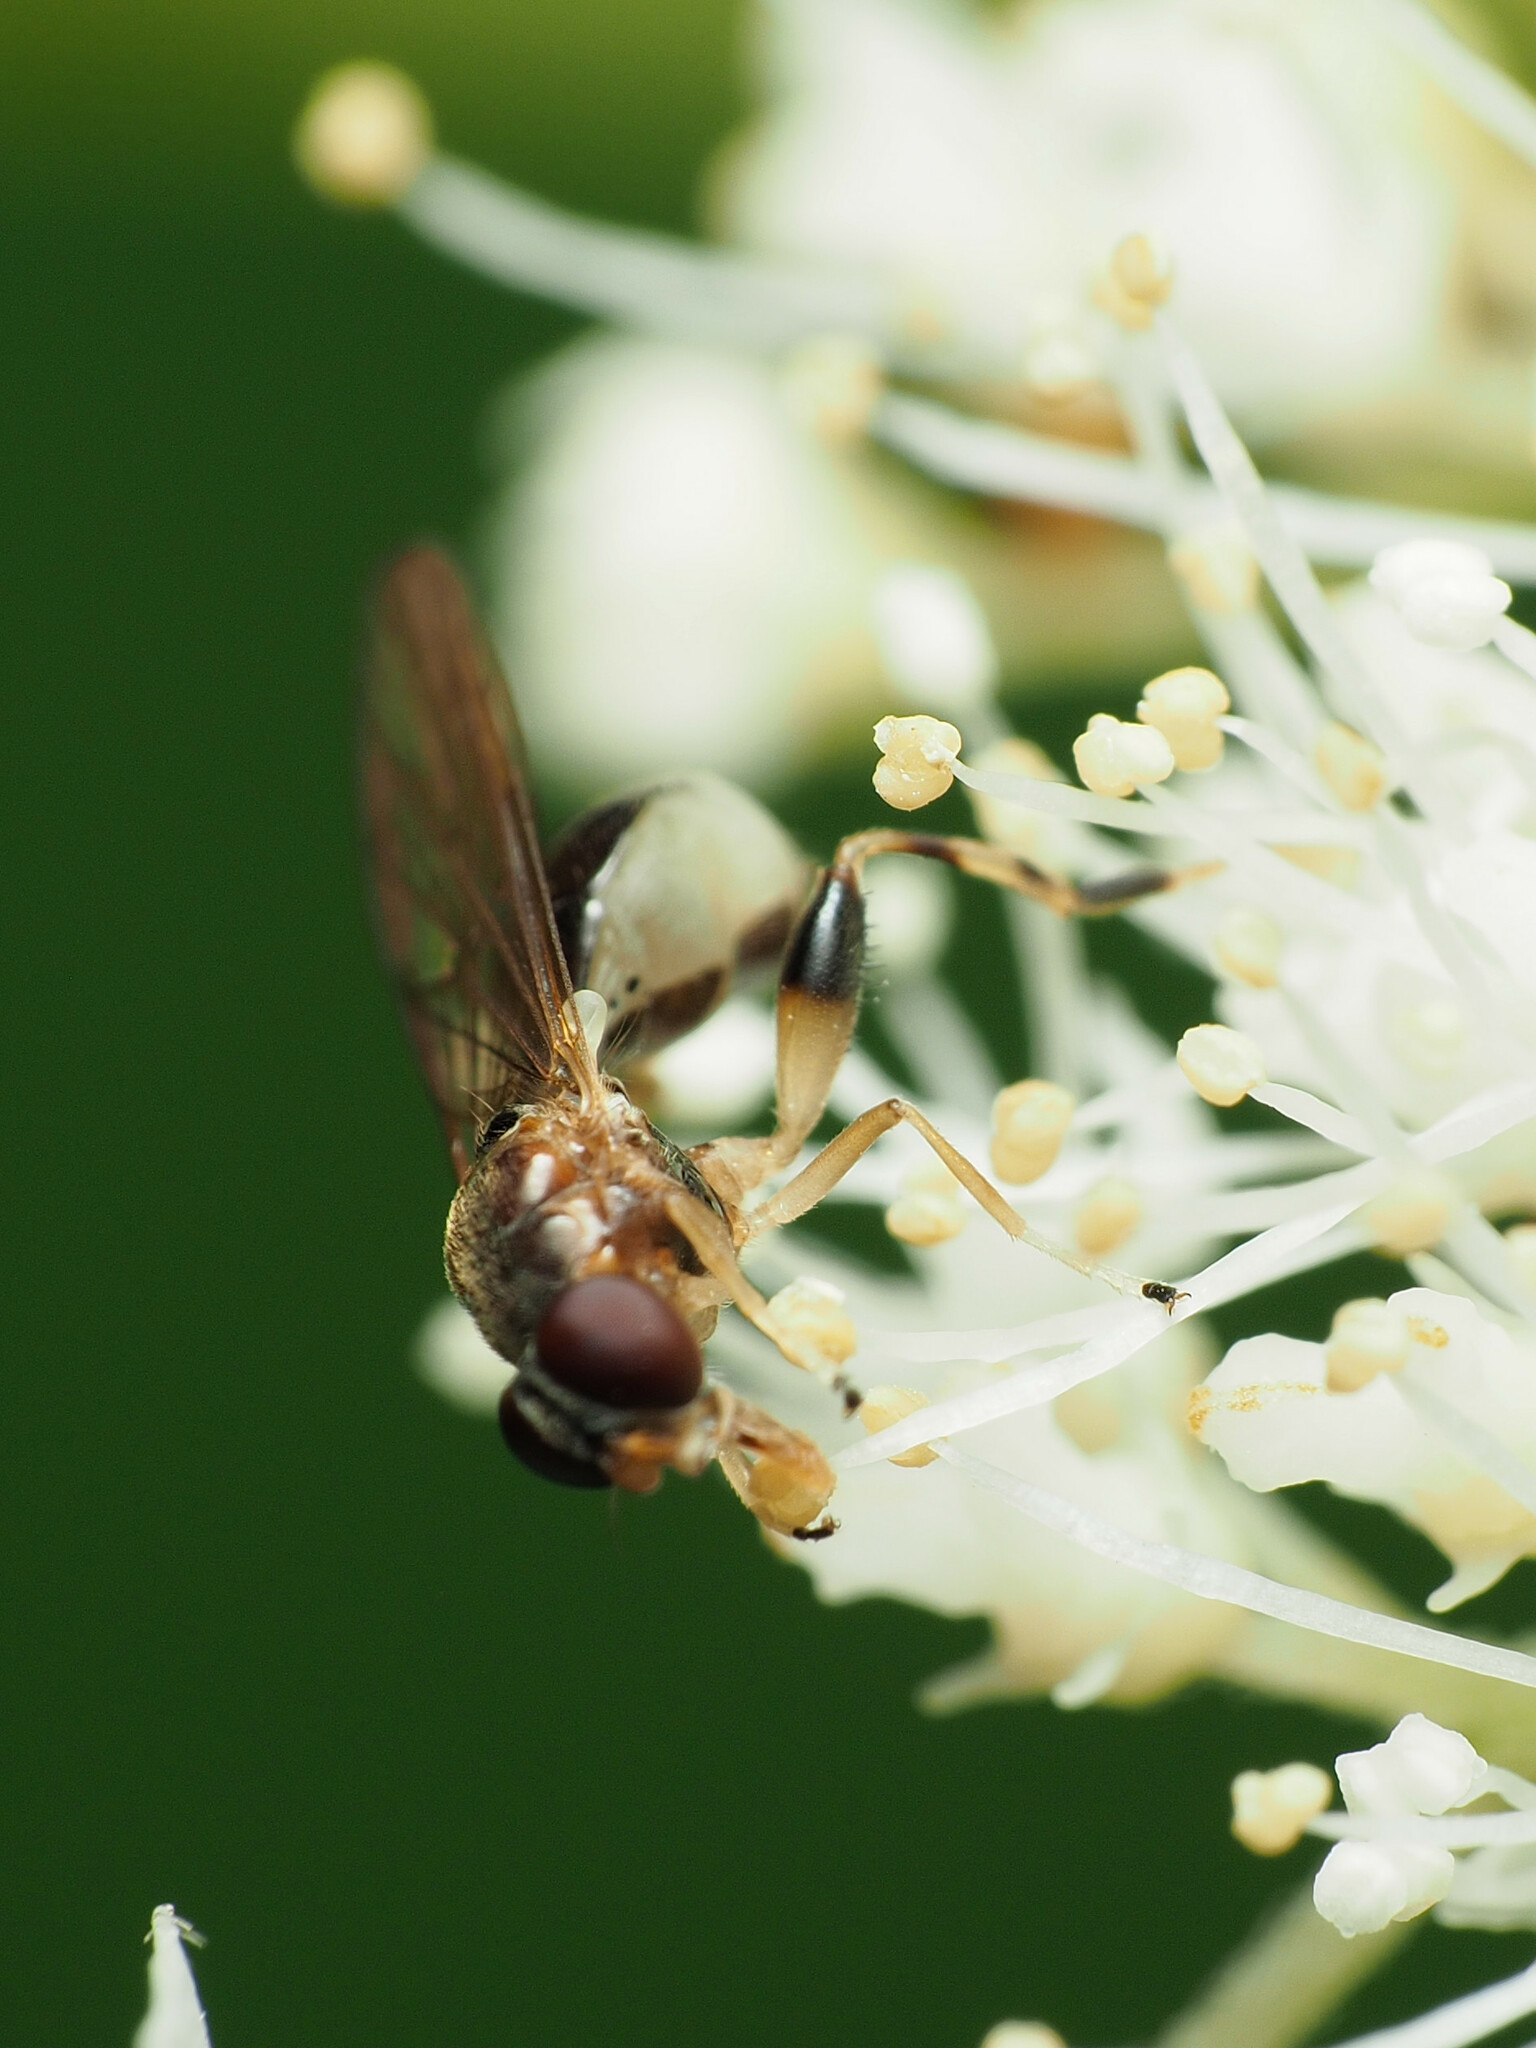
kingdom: Animalia
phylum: Arthropoda
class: Insecta
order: Diptera
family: Syrphidae
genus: Sphegina
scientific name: Sphegina keeniana
